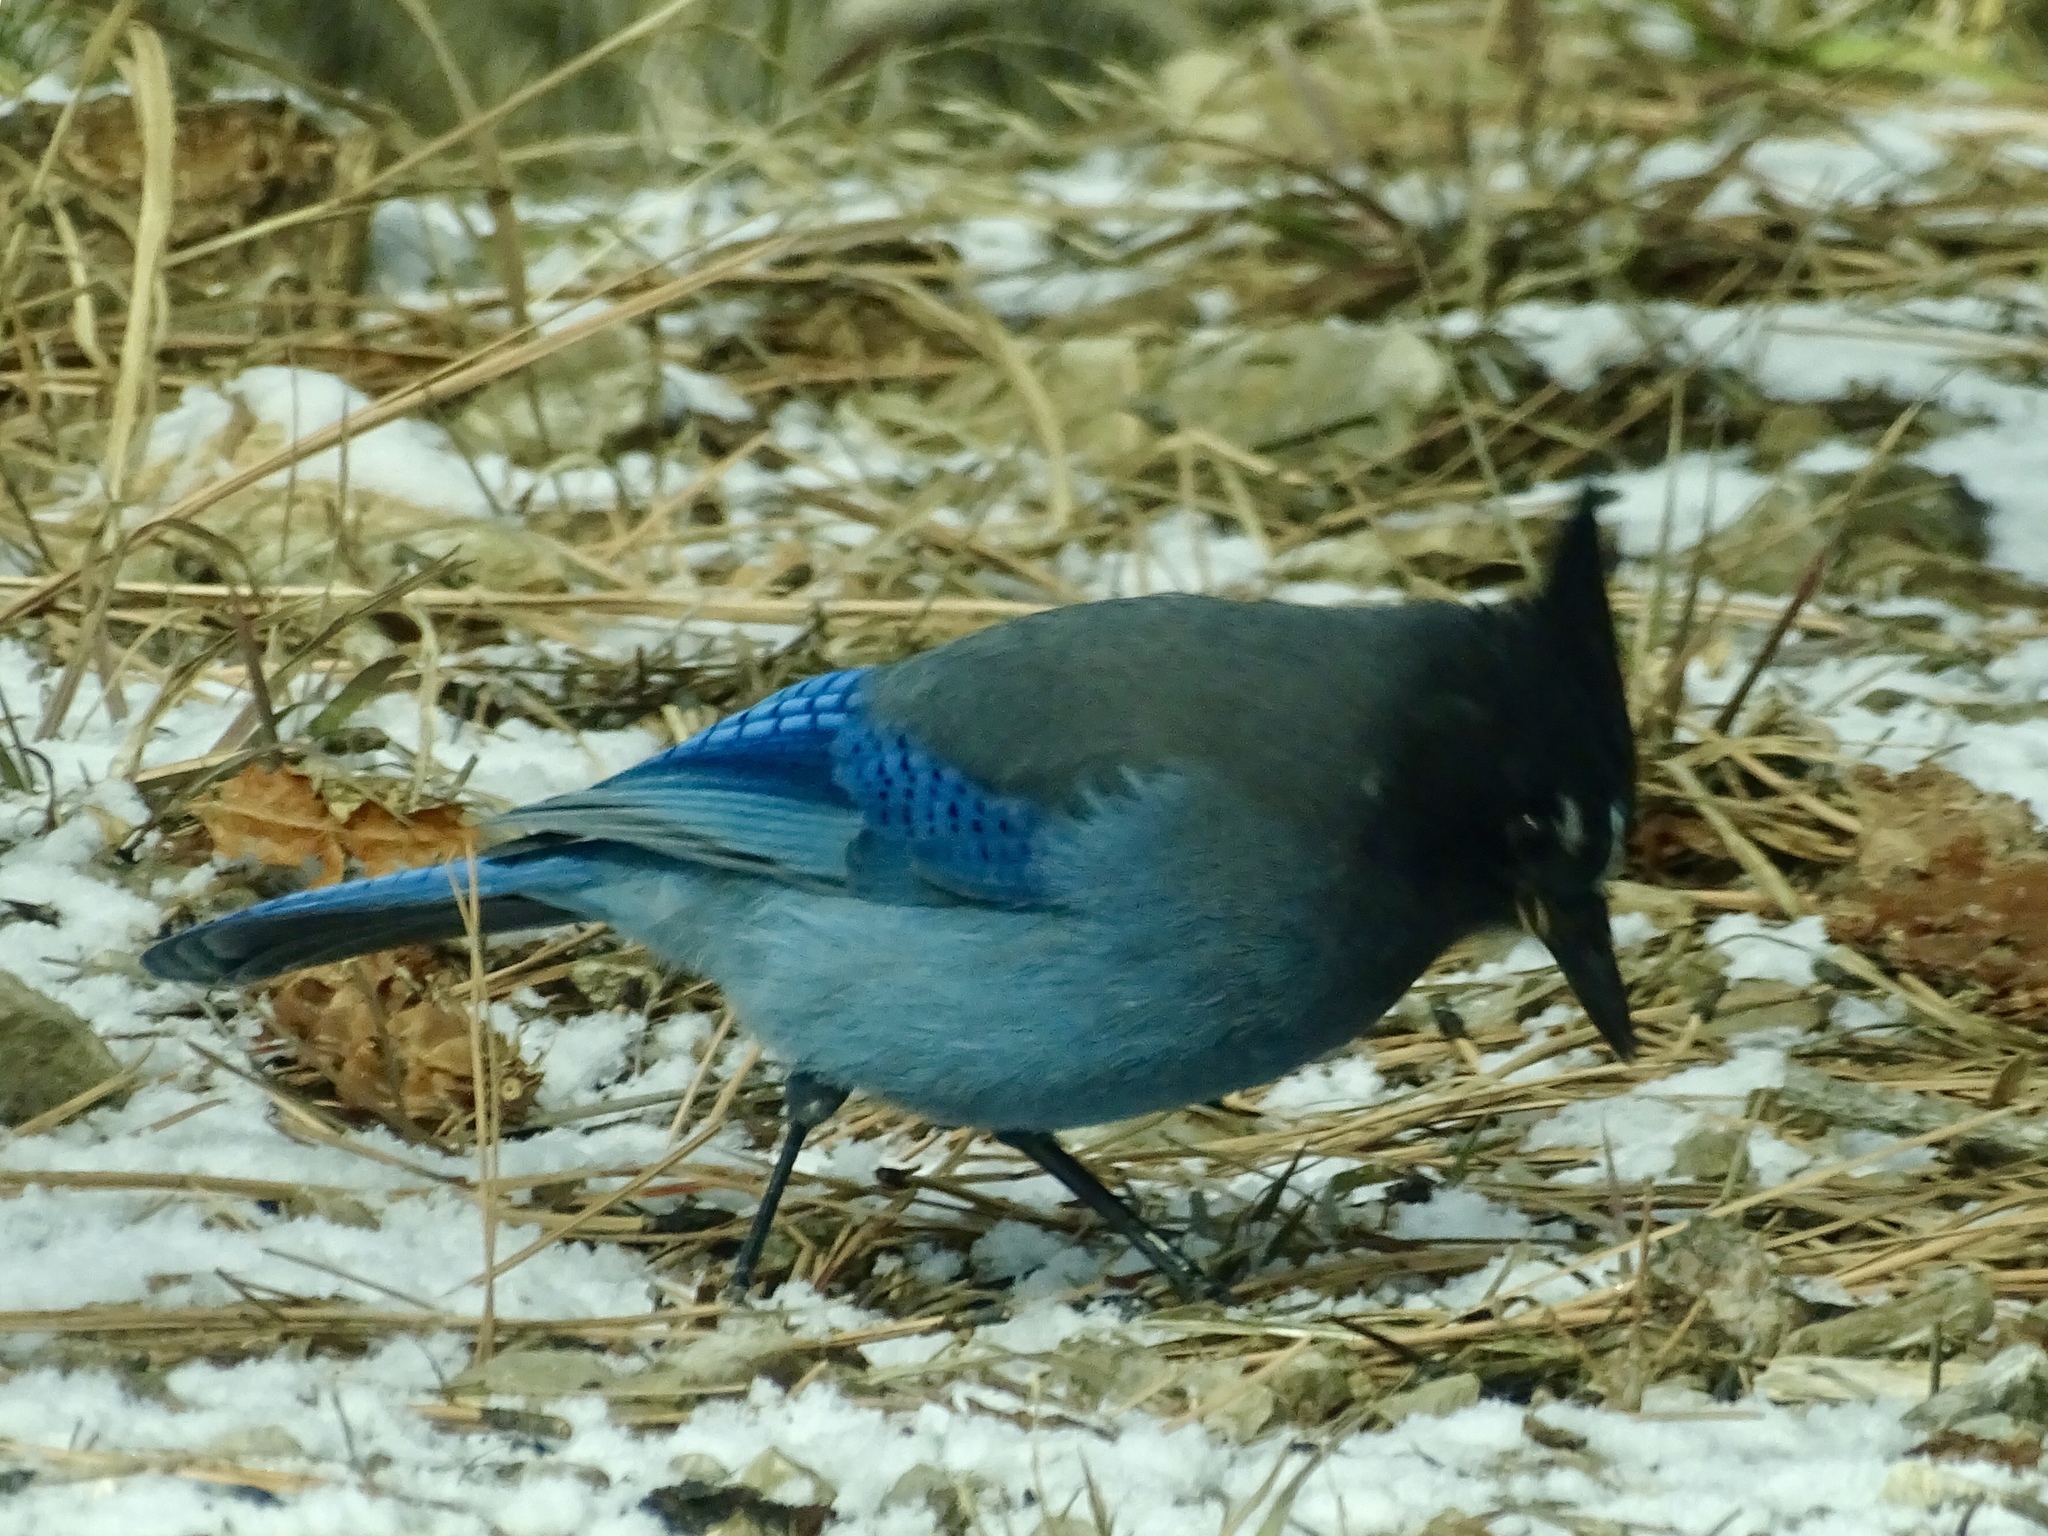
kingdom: Animalia
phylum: Chordata
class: Aves
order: Passeriformes
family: Corvidae
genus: Cyanocitta
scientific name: Cyanocitta stelleri
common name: Steller's jay
